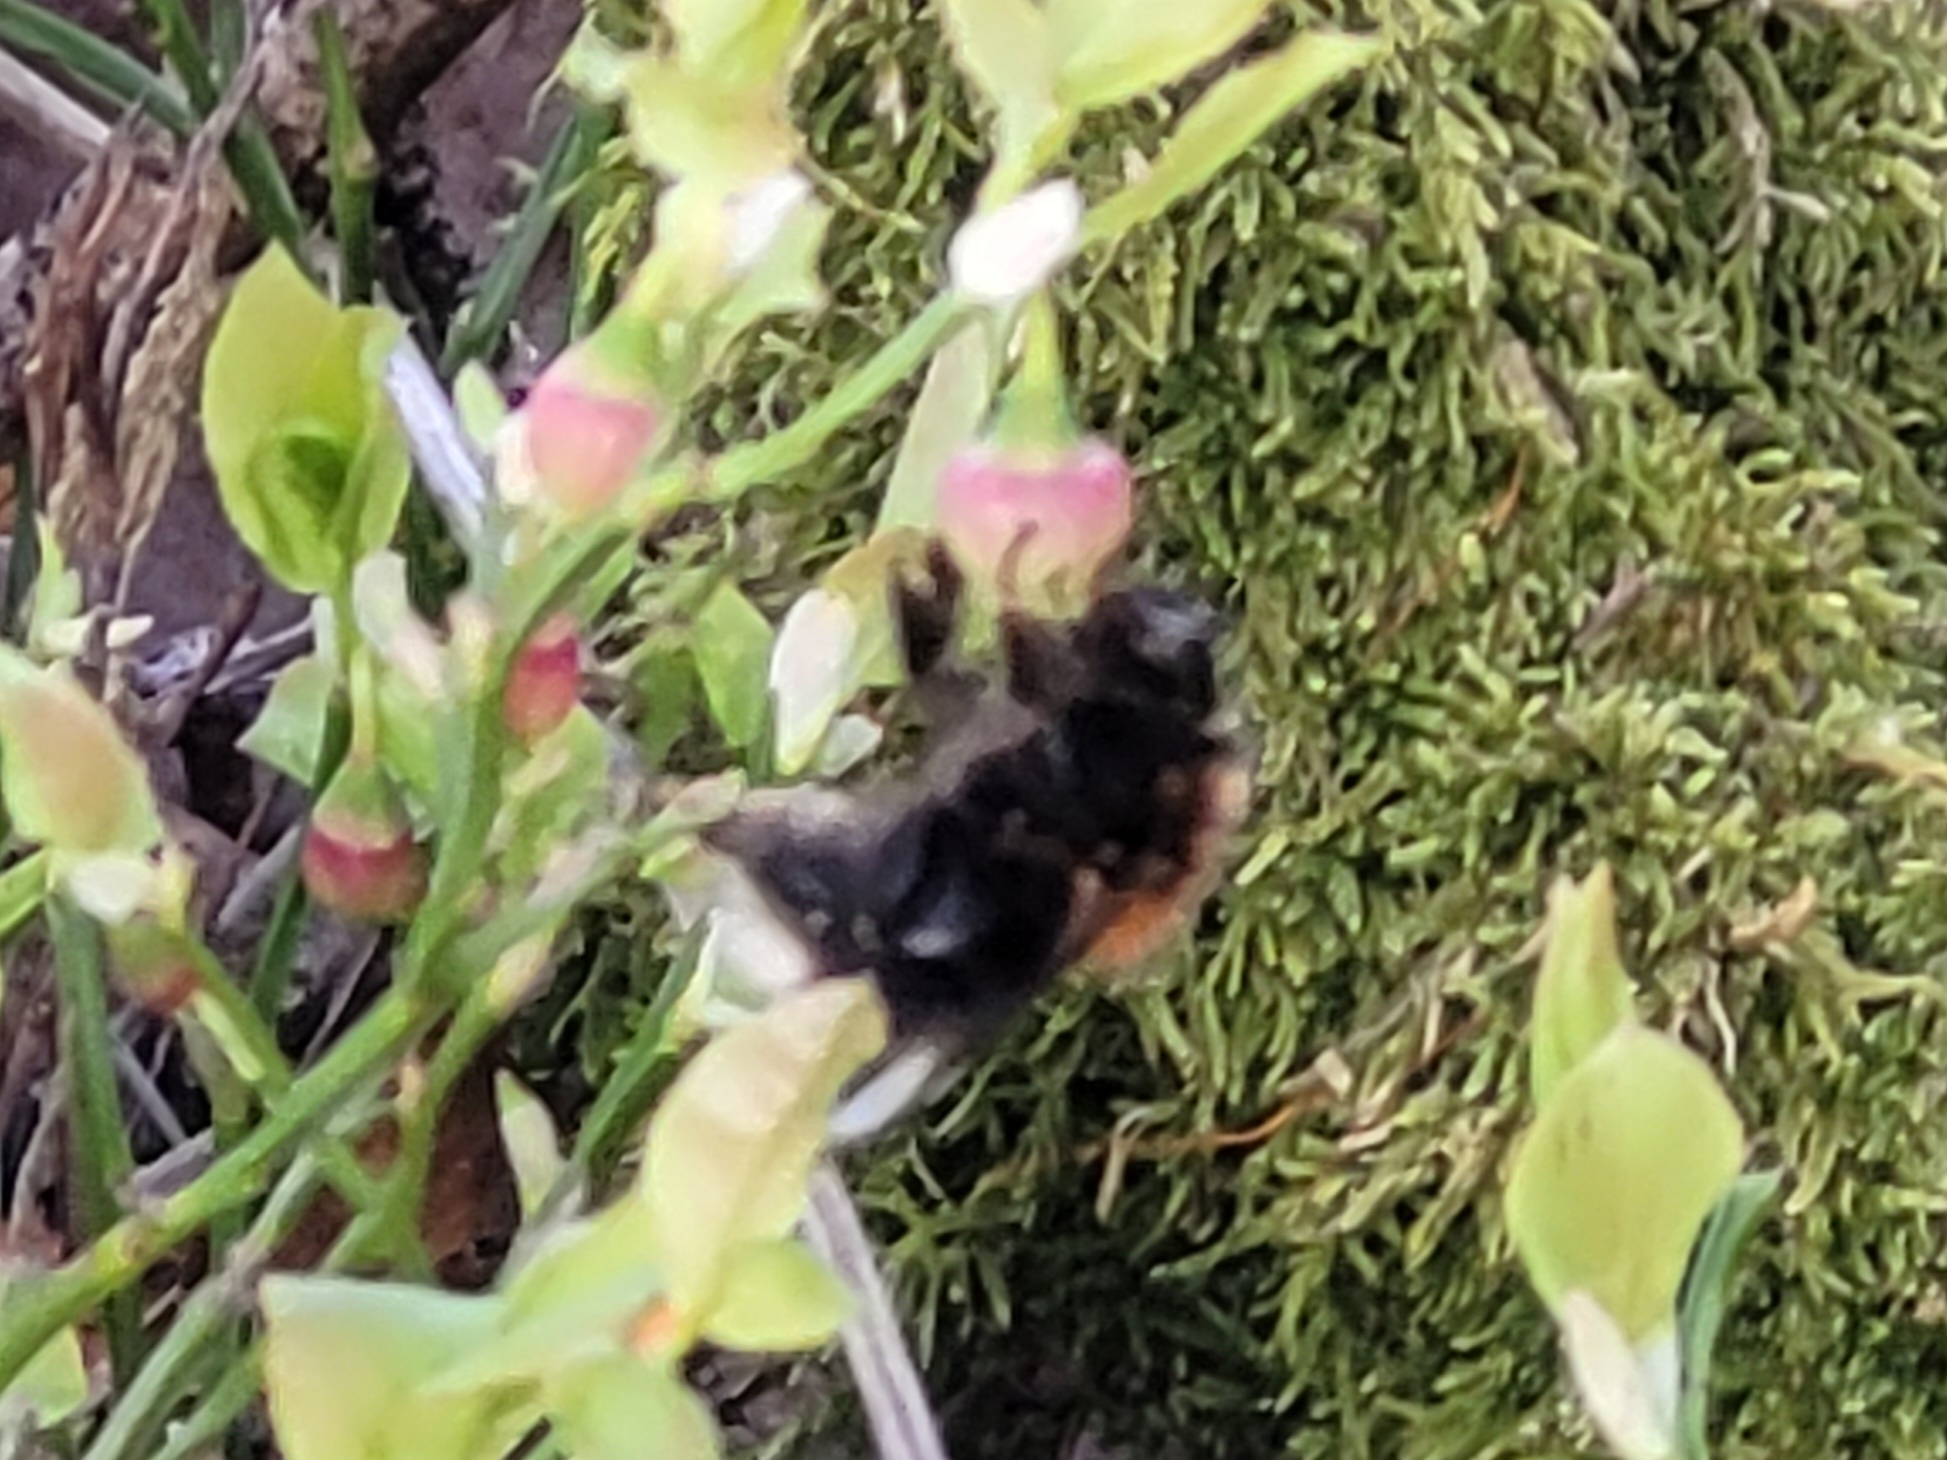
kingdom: Animalia
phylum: Arthropoda
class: Insecta
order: Hymenoptera
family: Apidae
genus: Bombus
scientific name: Bombus hypnorum
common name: New garden bumblebee
